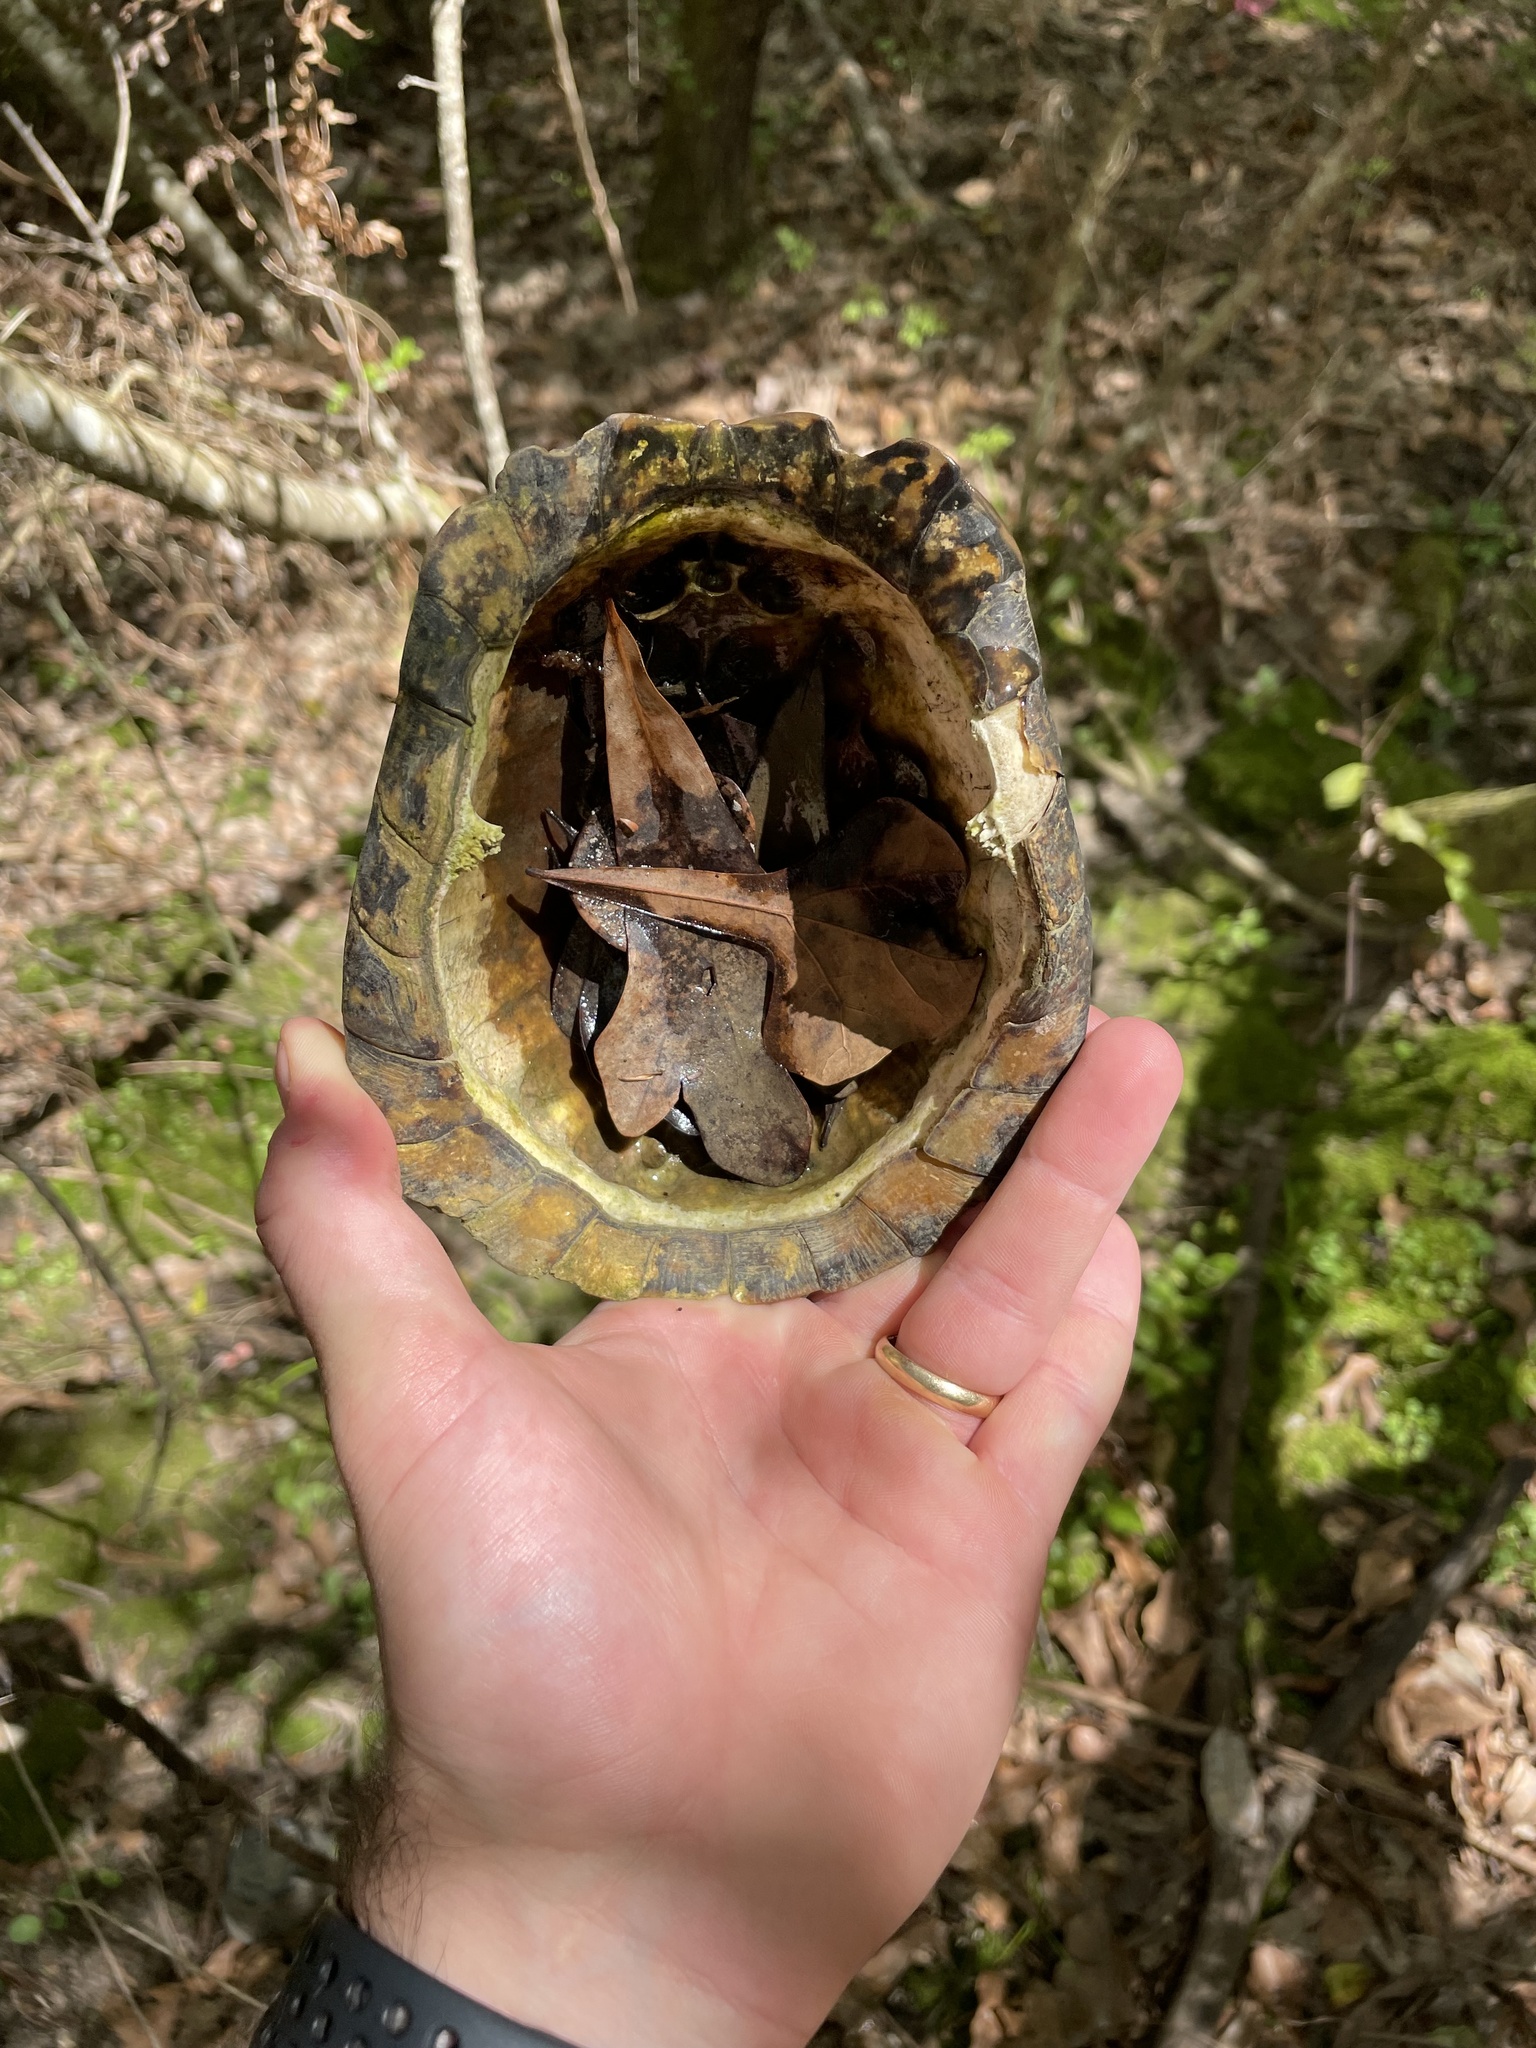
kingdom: Animalia
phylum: Chordata
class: Testudines
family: Emydidae
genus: Terrapene
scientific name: Terrapene carolina
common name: Common box turtle
